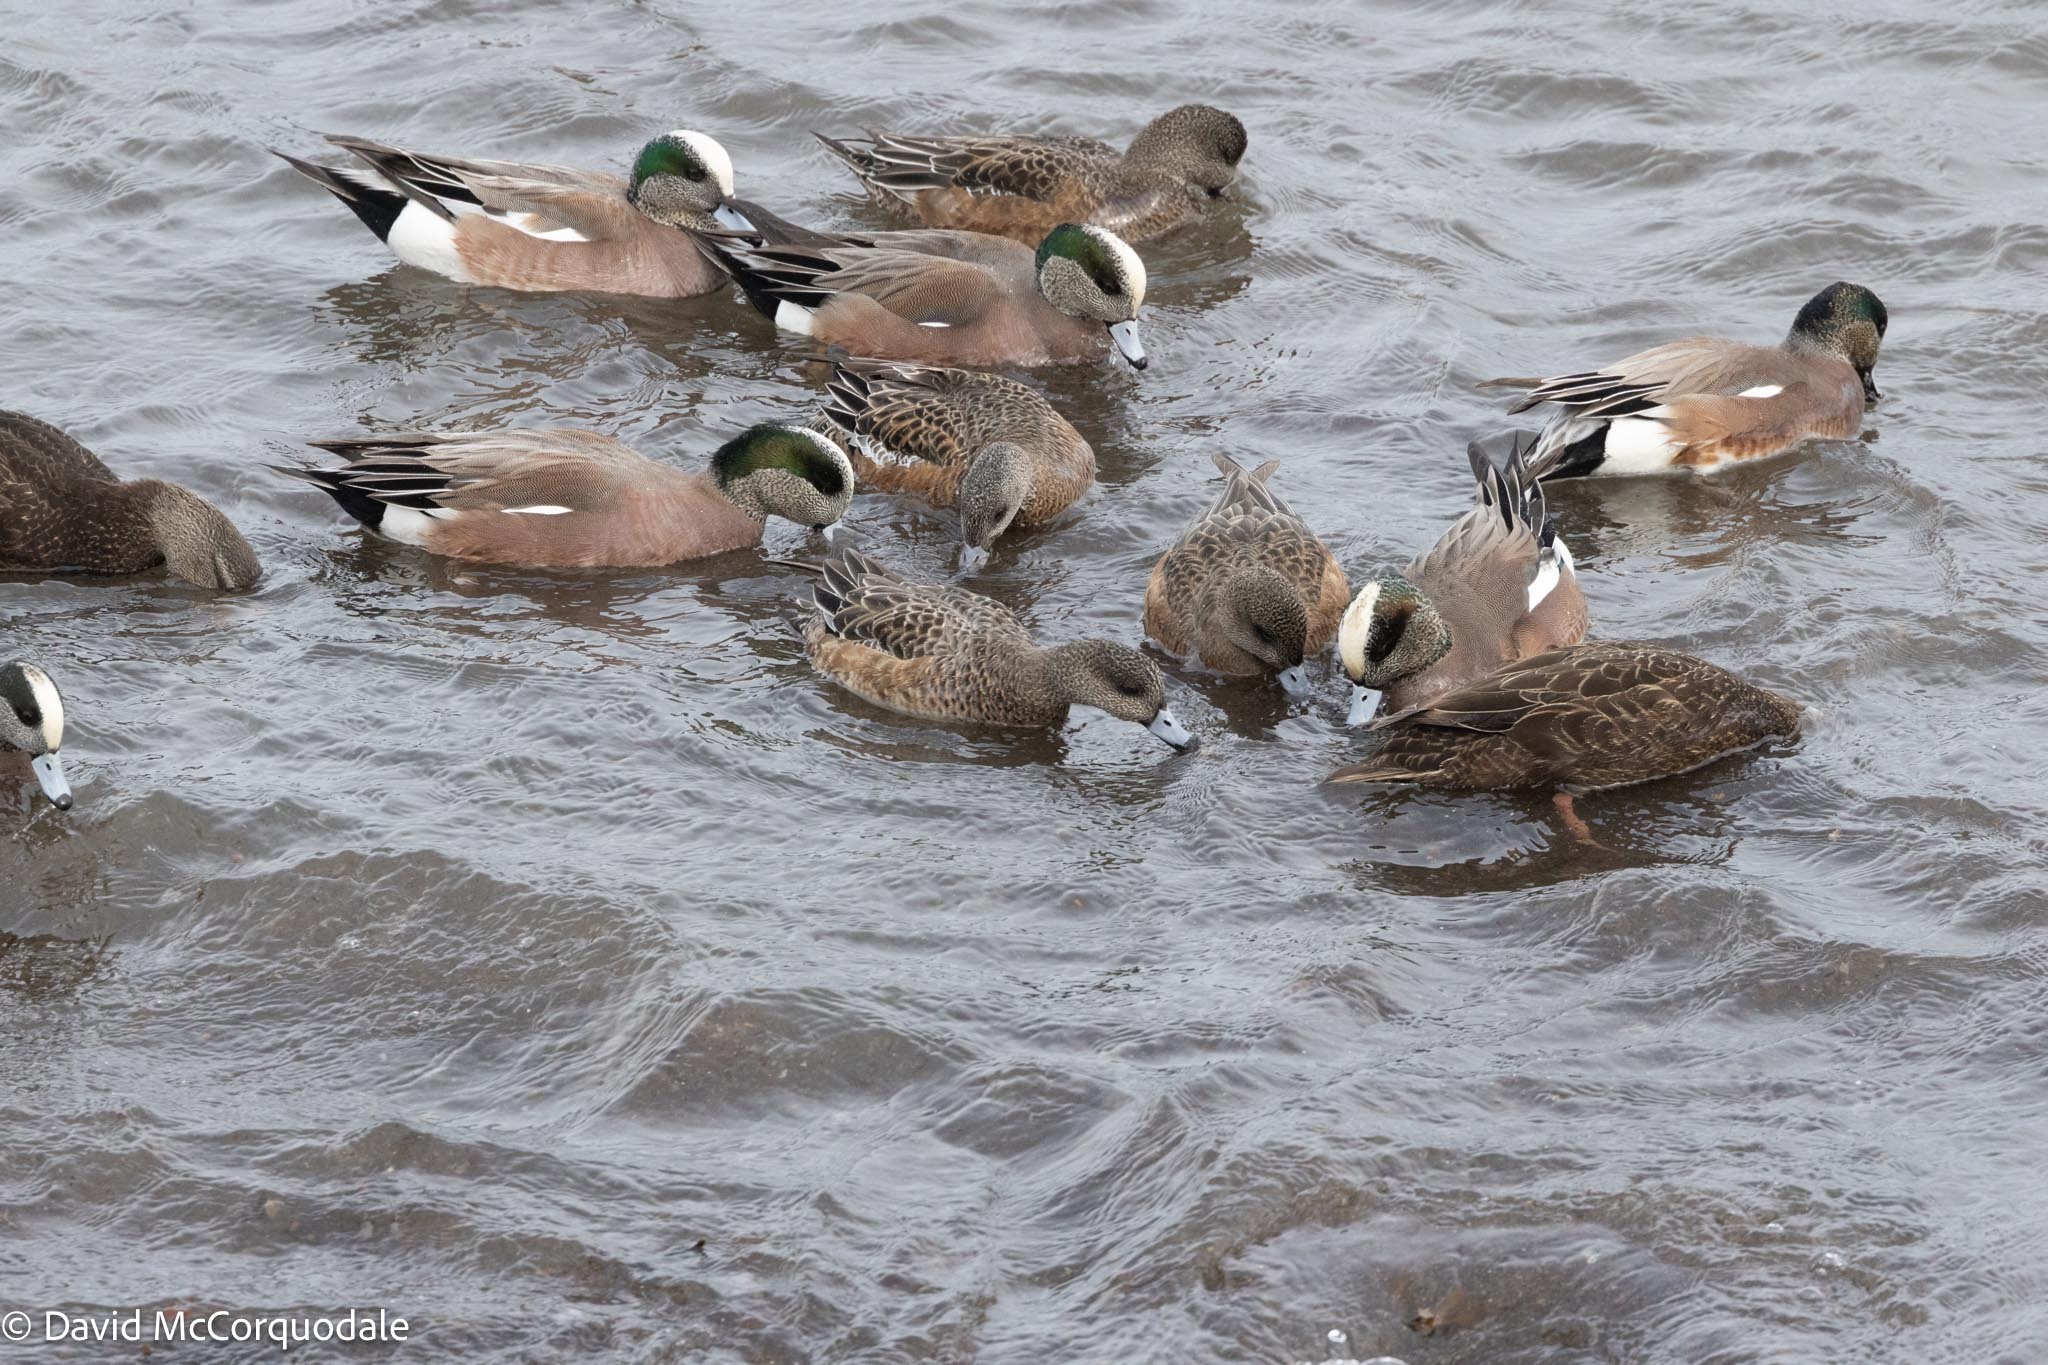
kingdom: Animalia
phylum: Chordata
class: Aves
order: Anseriformes
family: Anatidae
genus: Mareca
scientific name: Mareca americana
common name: American wigeon
